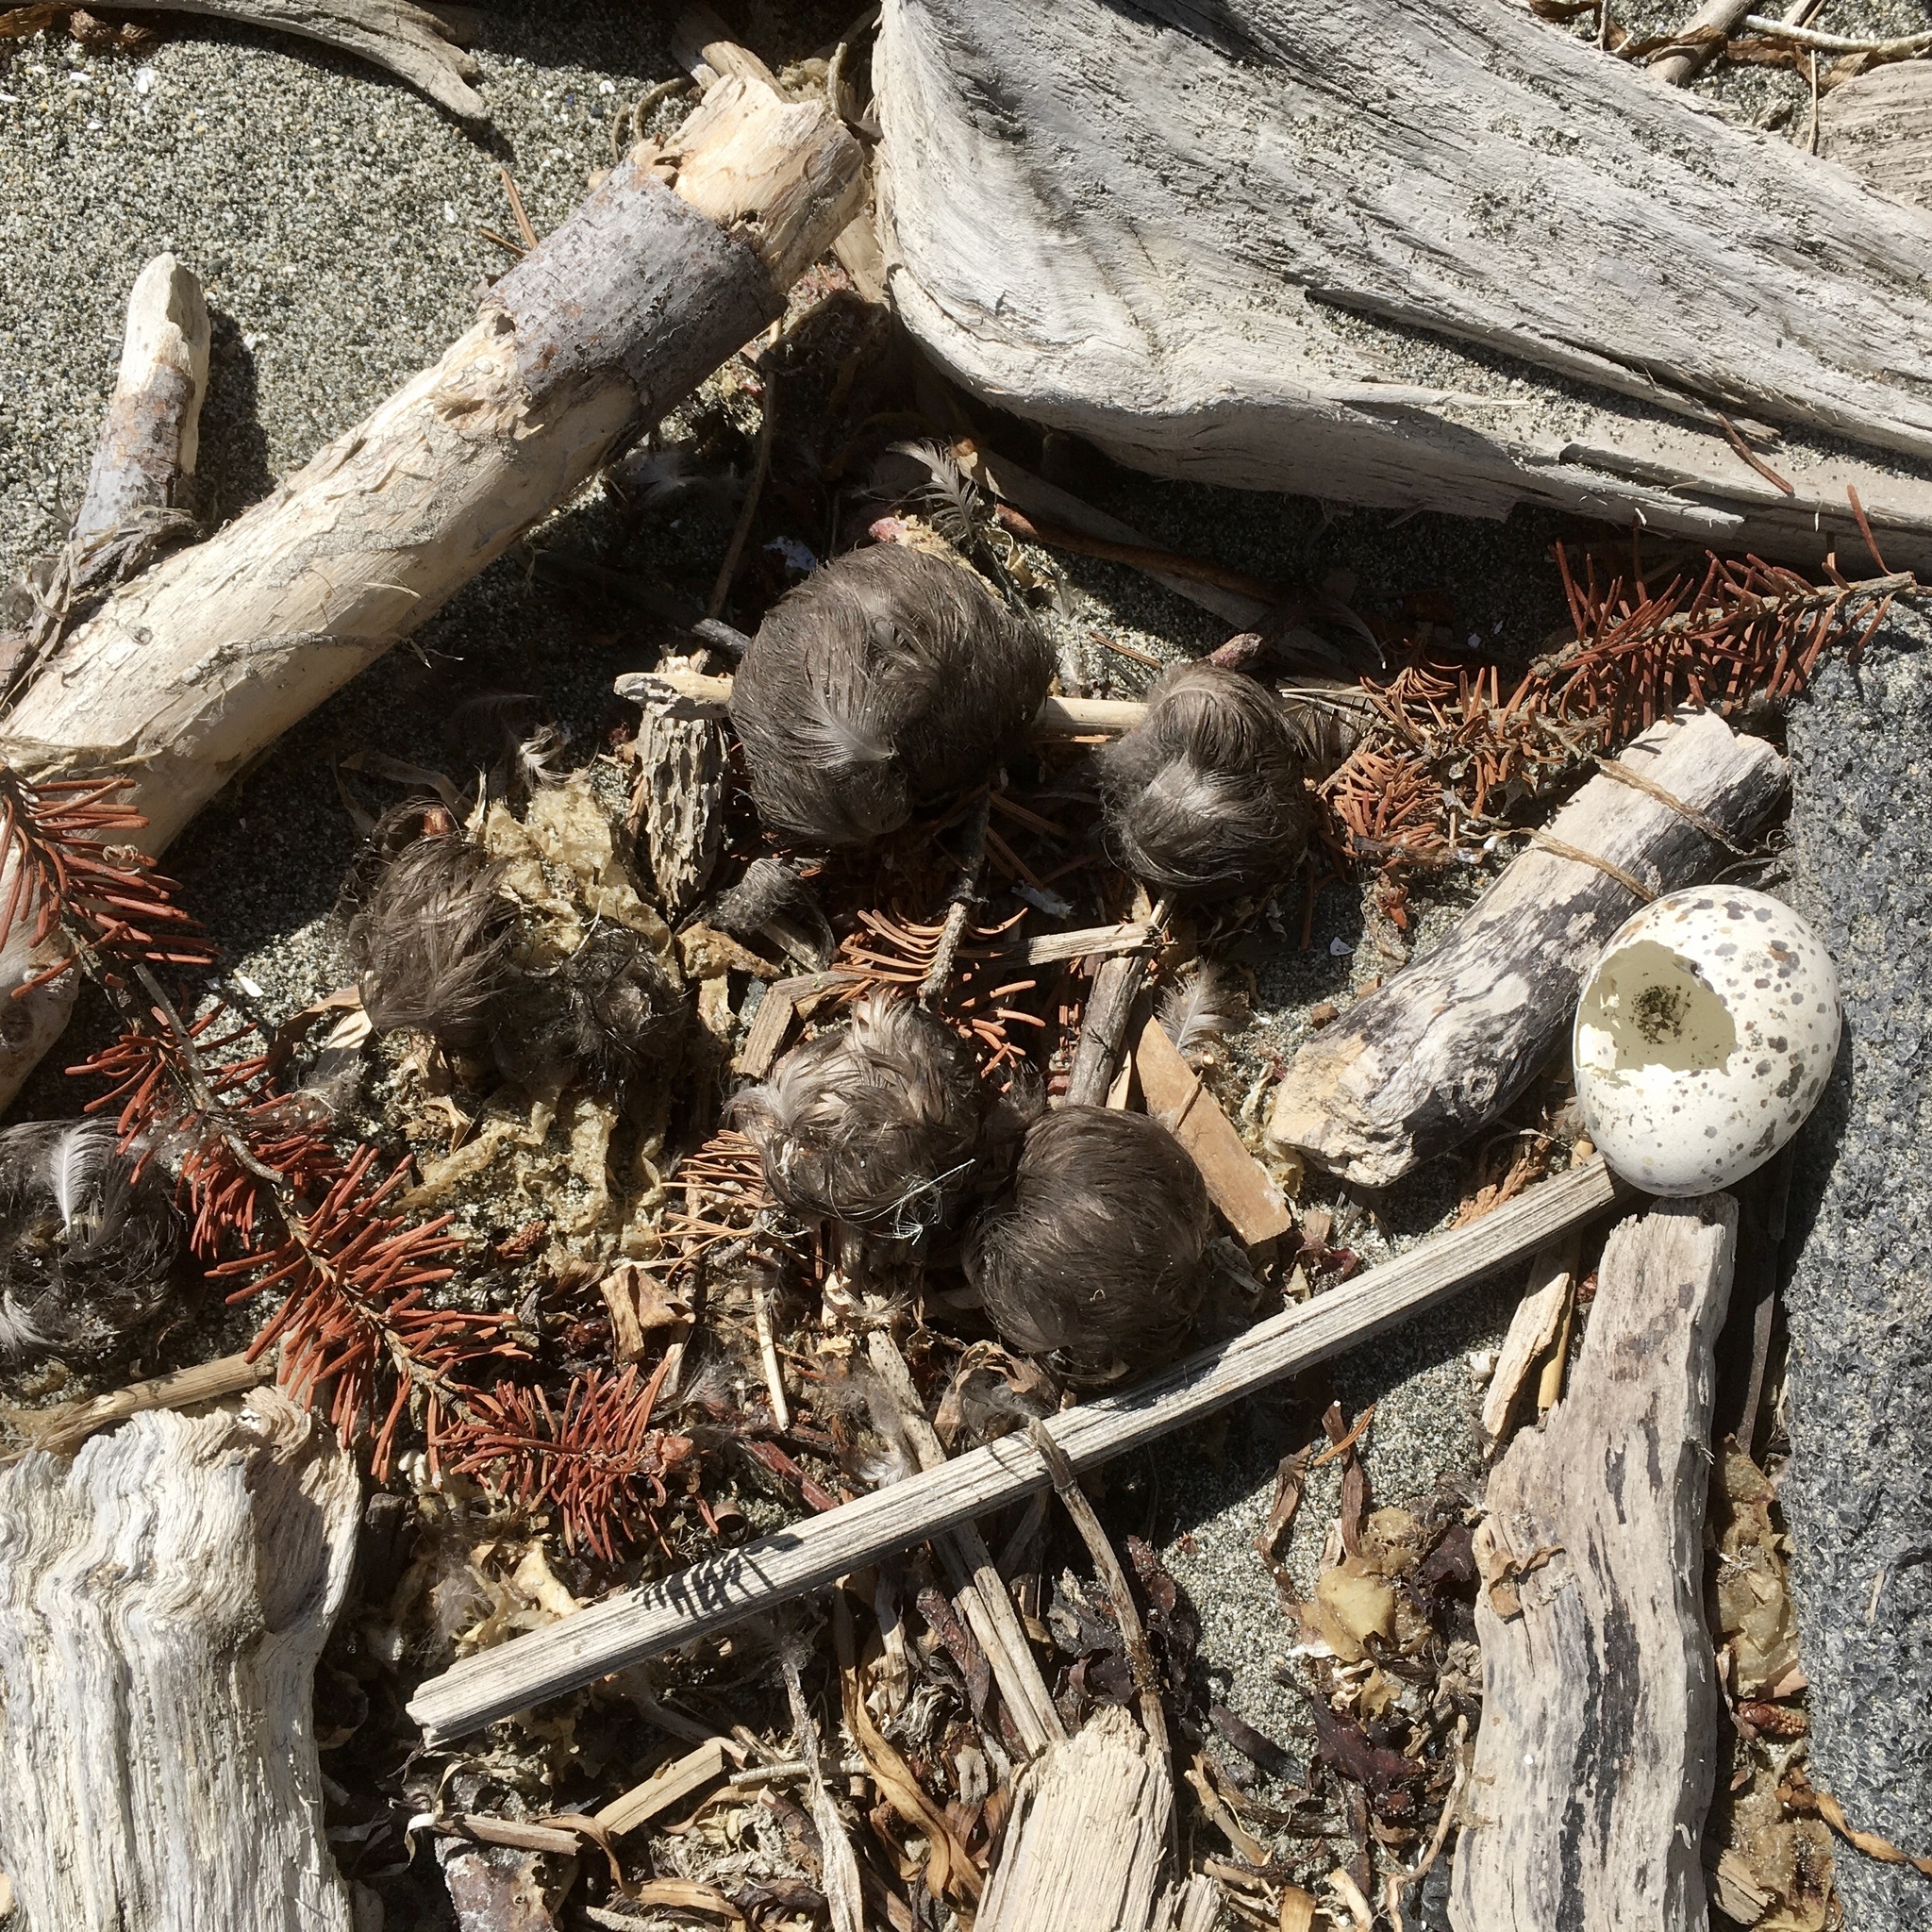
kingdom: Animalia
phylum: Chordata
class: Aves
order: Charadriiformes
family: Haematopodidae
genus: Haematopus
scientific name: Haematopus bachmani
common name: Black oystercatcher
